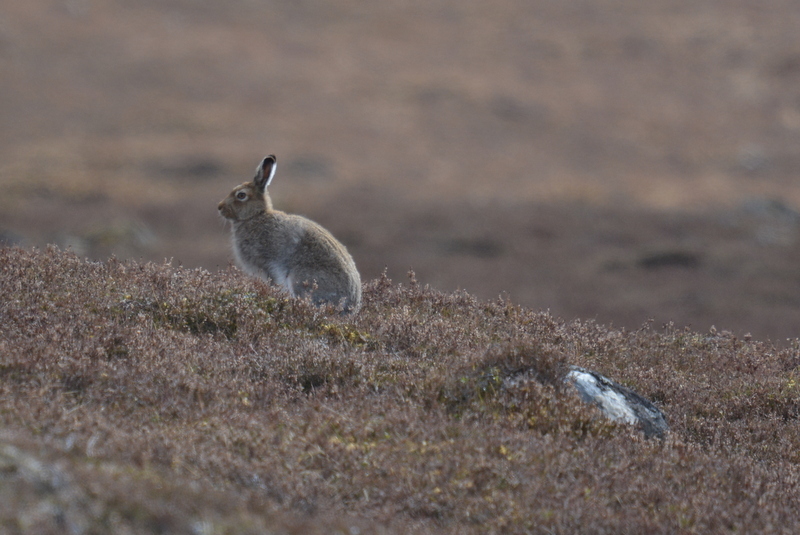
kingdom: Animalia
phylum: Chordata
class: Mammalia
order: Lagomorpha
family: Leporidae
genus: Lepus
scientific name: Lepus timidus
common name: Mountain hare
